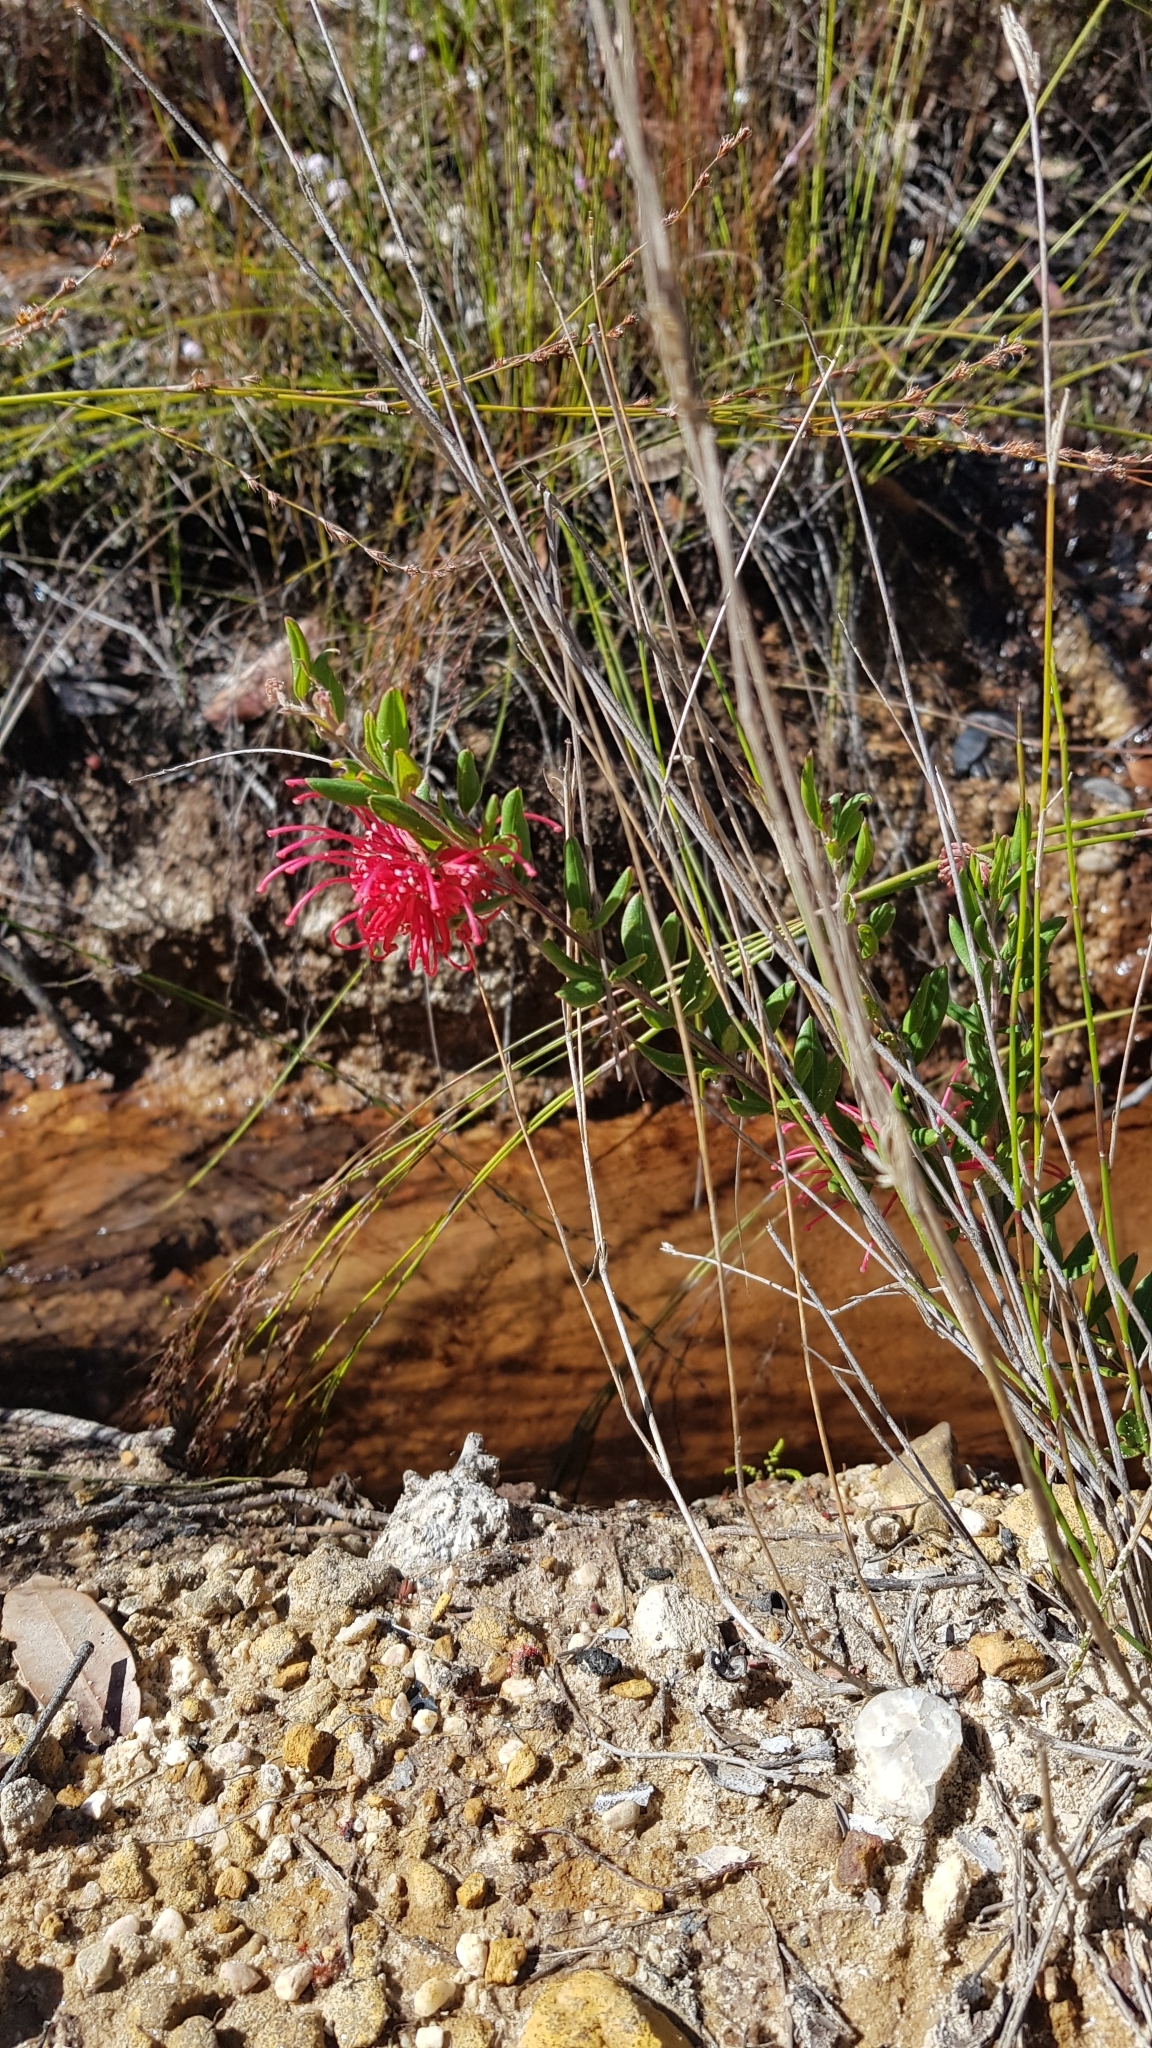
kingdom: Plantae
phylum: Tracheophyta
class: Magnoliopsida
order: Proteales
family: Proteaceae
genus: Grevillea
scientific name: Grevillea speciosa
